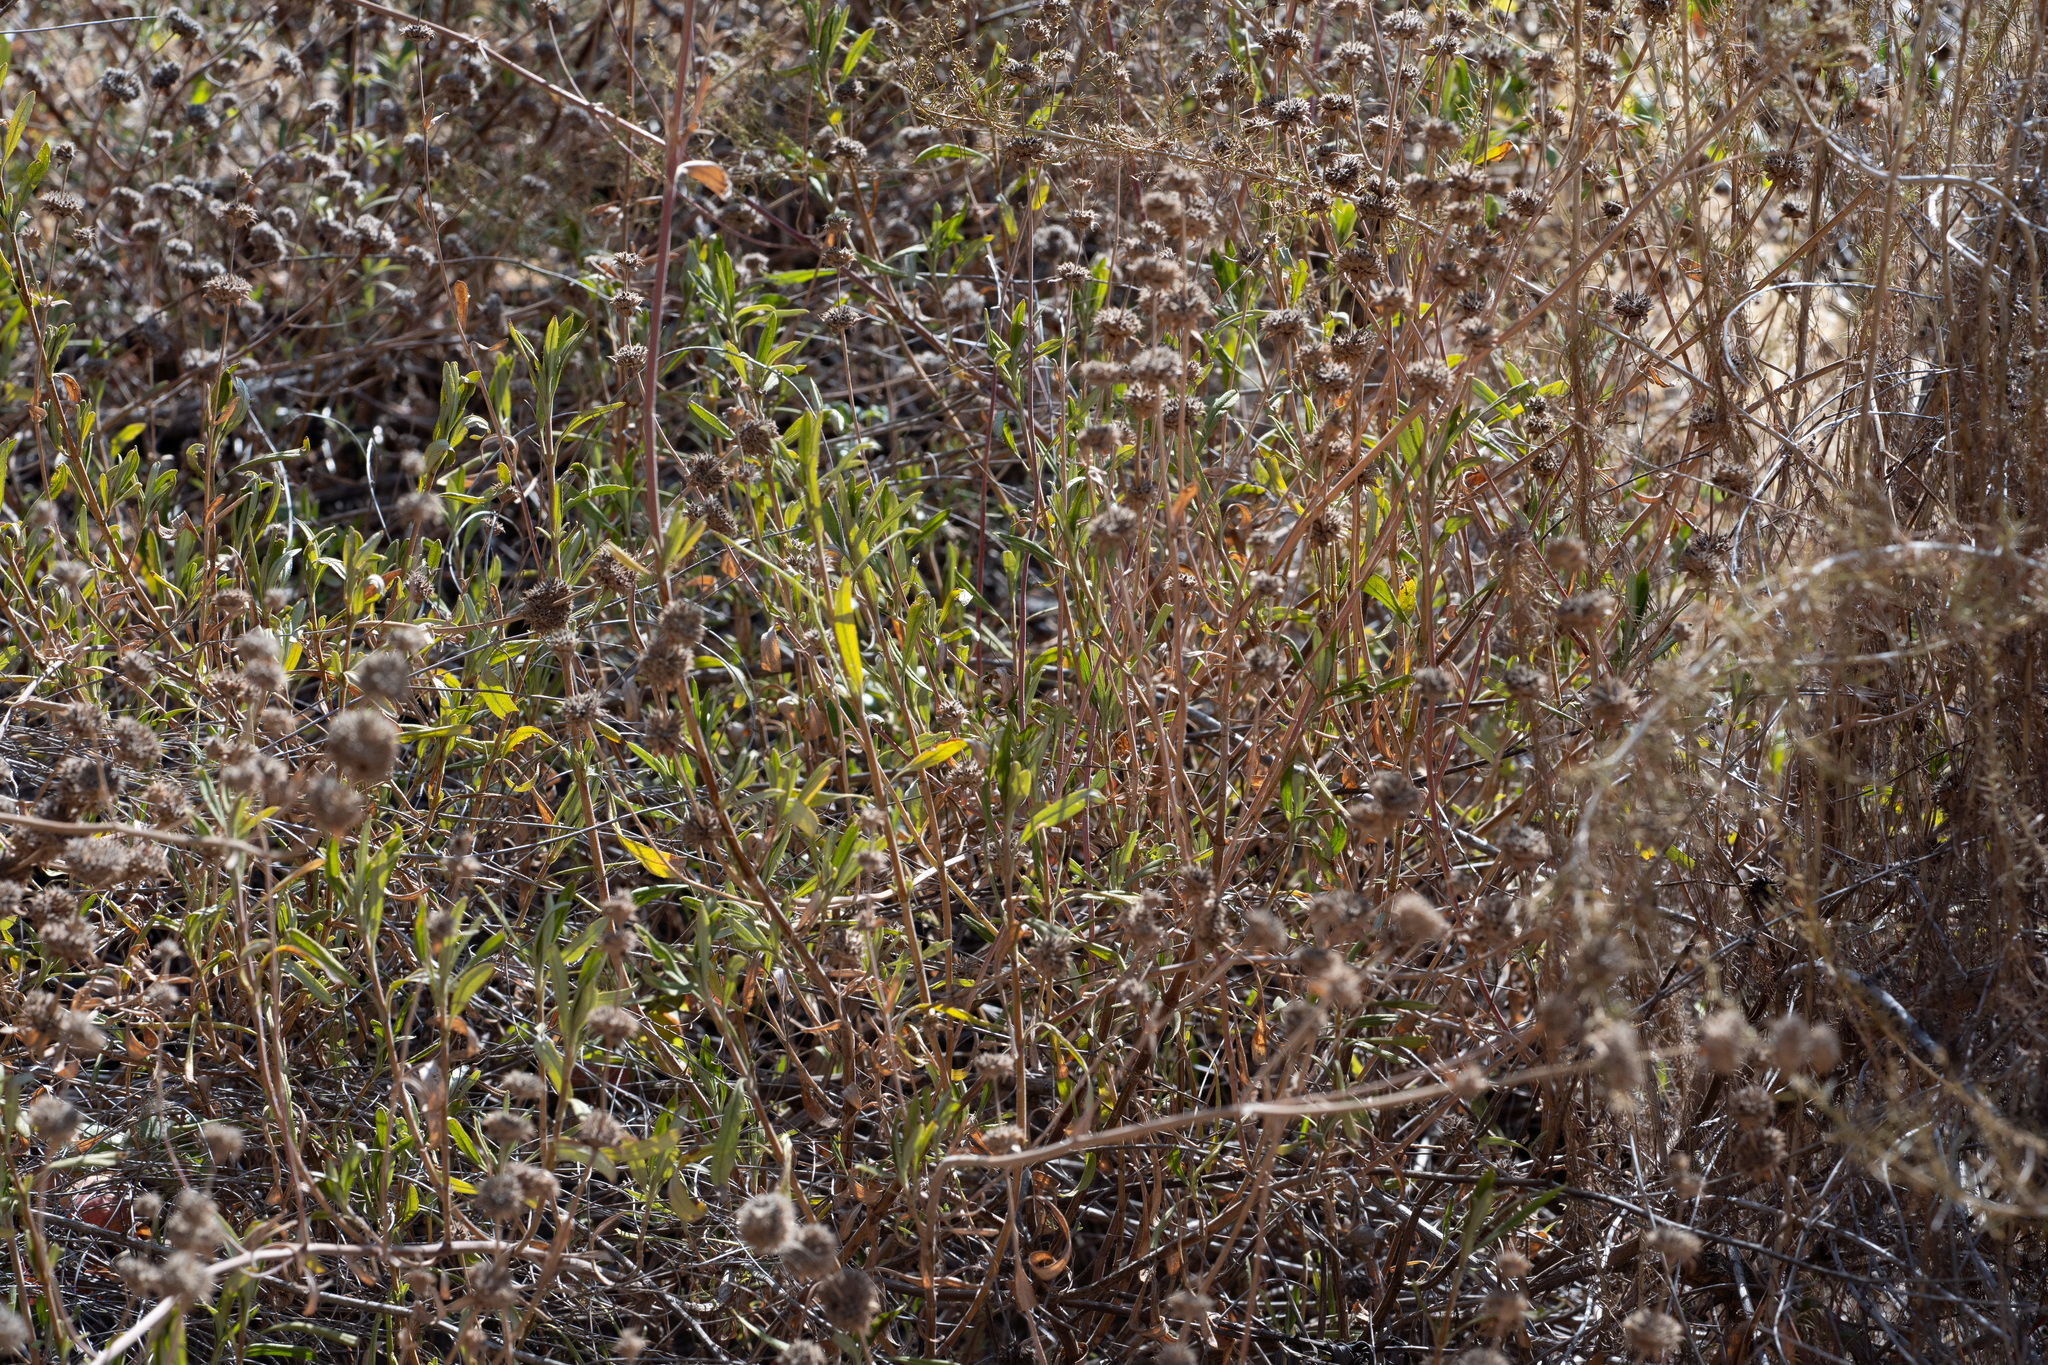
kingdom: Plantae
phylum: Tracheophyta
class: Magnoliopsida
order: Lamiales
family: Lamiaceae
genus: Salvia
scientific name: Salvia mellifera
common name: Black sage
